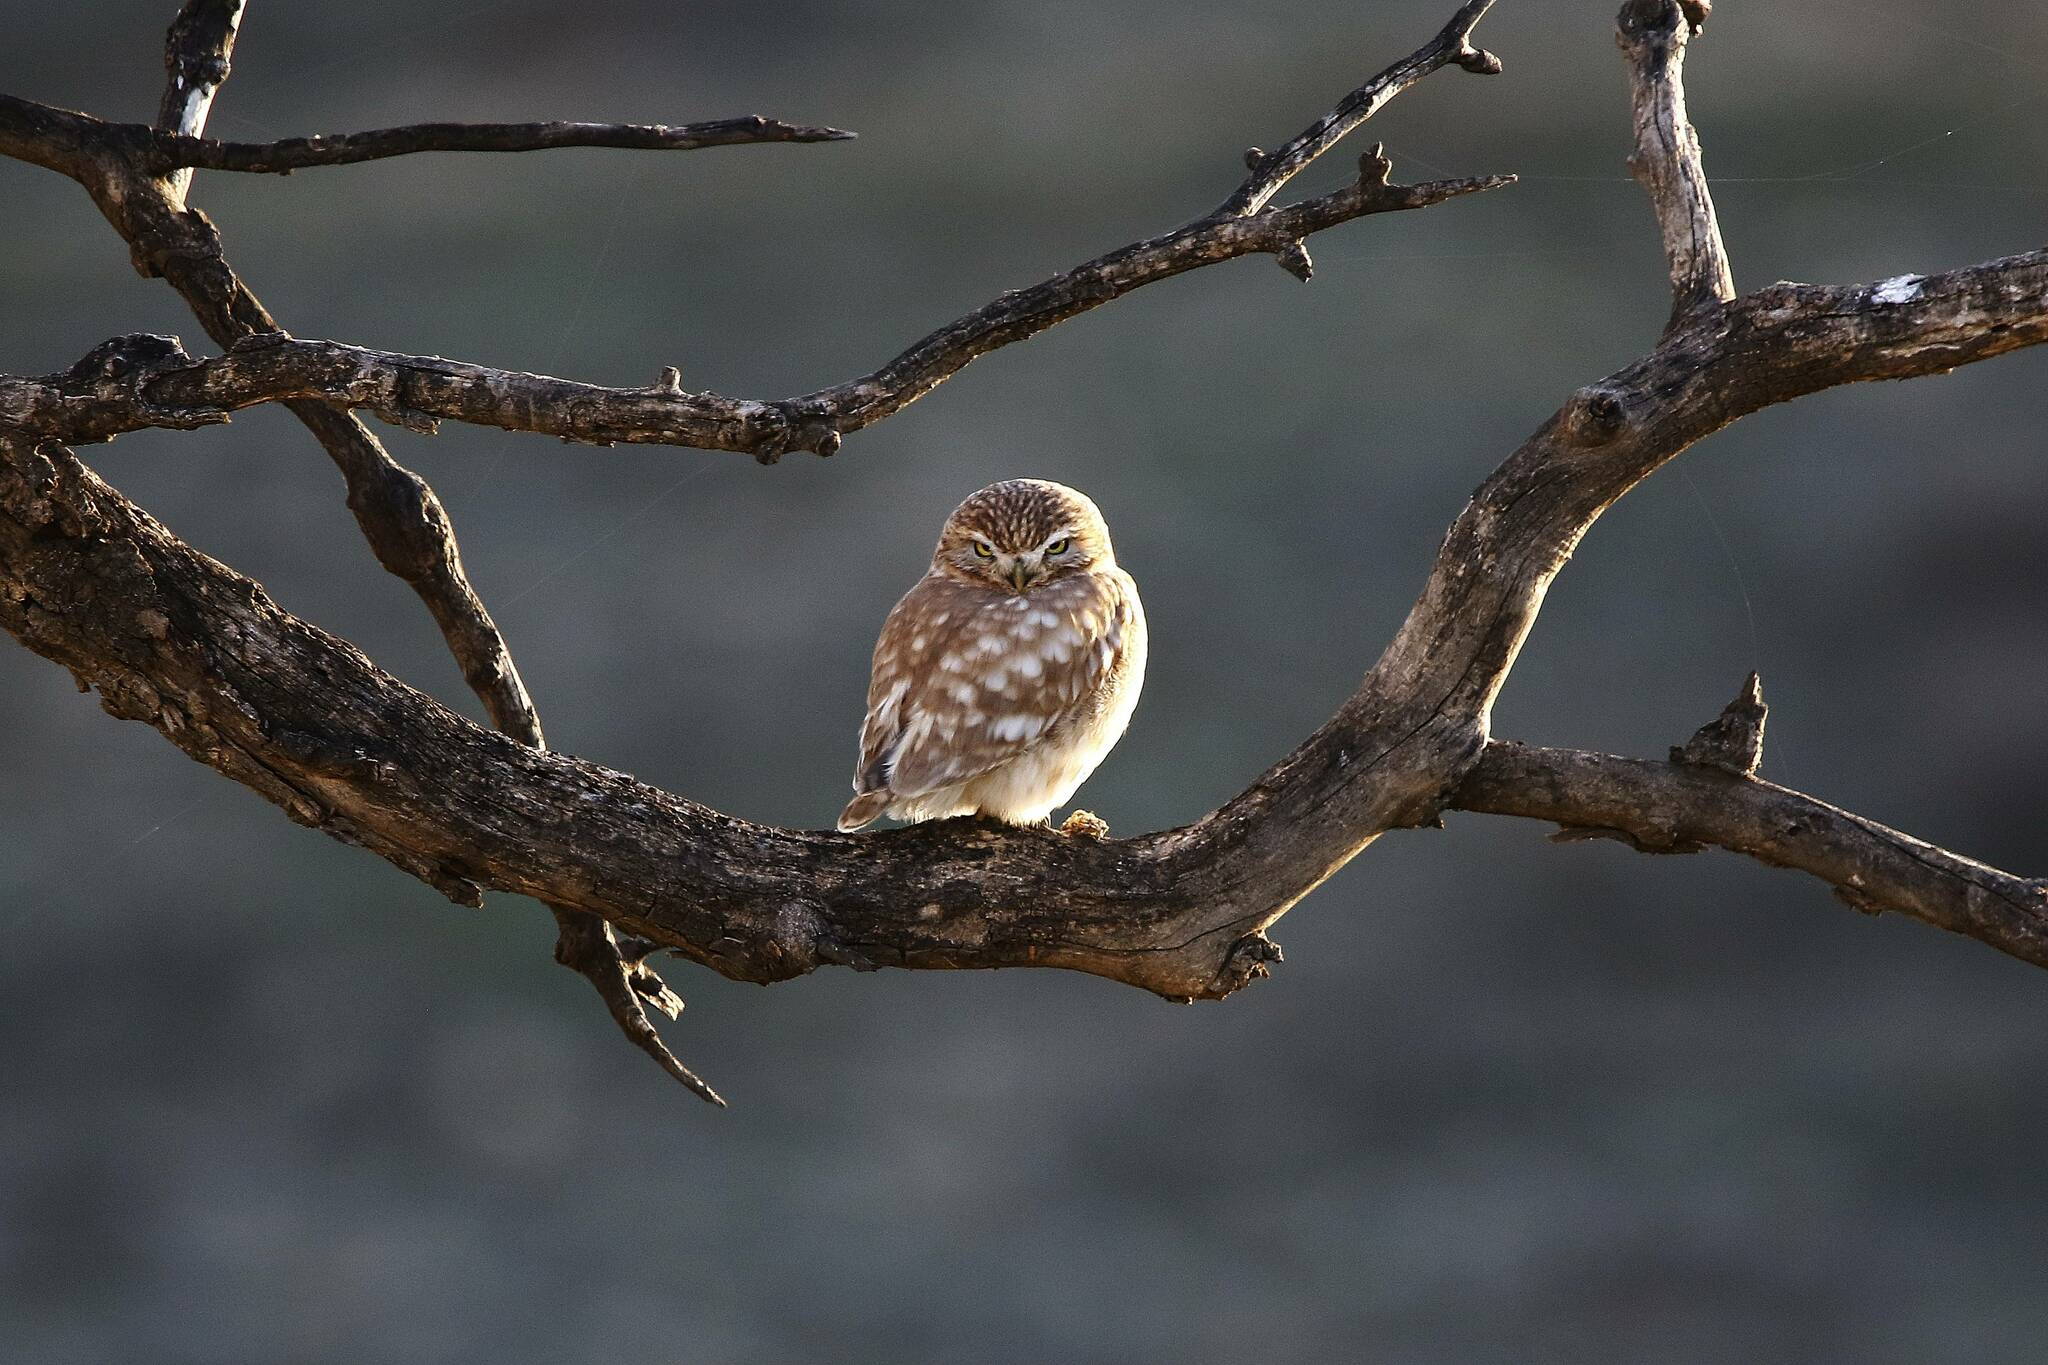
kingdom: Animalia
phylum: Chordata
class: Aves
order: Strigiformes
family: Strigidae
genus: Athene
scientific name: Athene noctua
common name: Little owl
